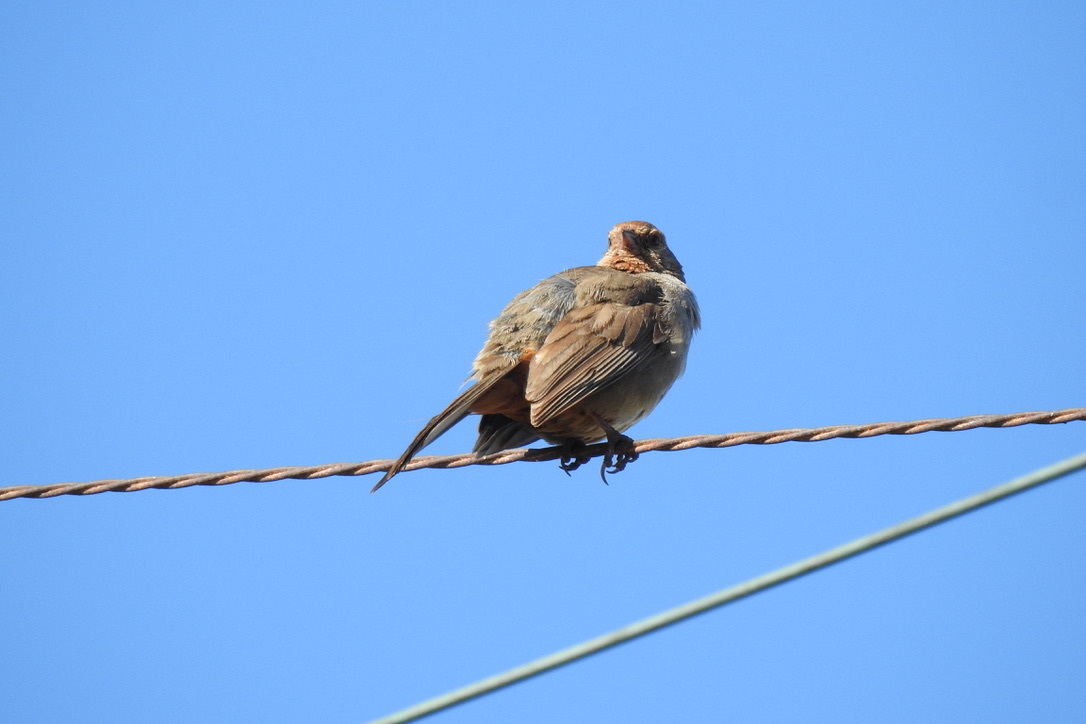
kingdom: Animalia
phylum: Chordata
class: Aves
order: Passeriformes
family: Passerellidae
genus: Melozone
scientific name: Melozone crissalis
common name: California towhee
